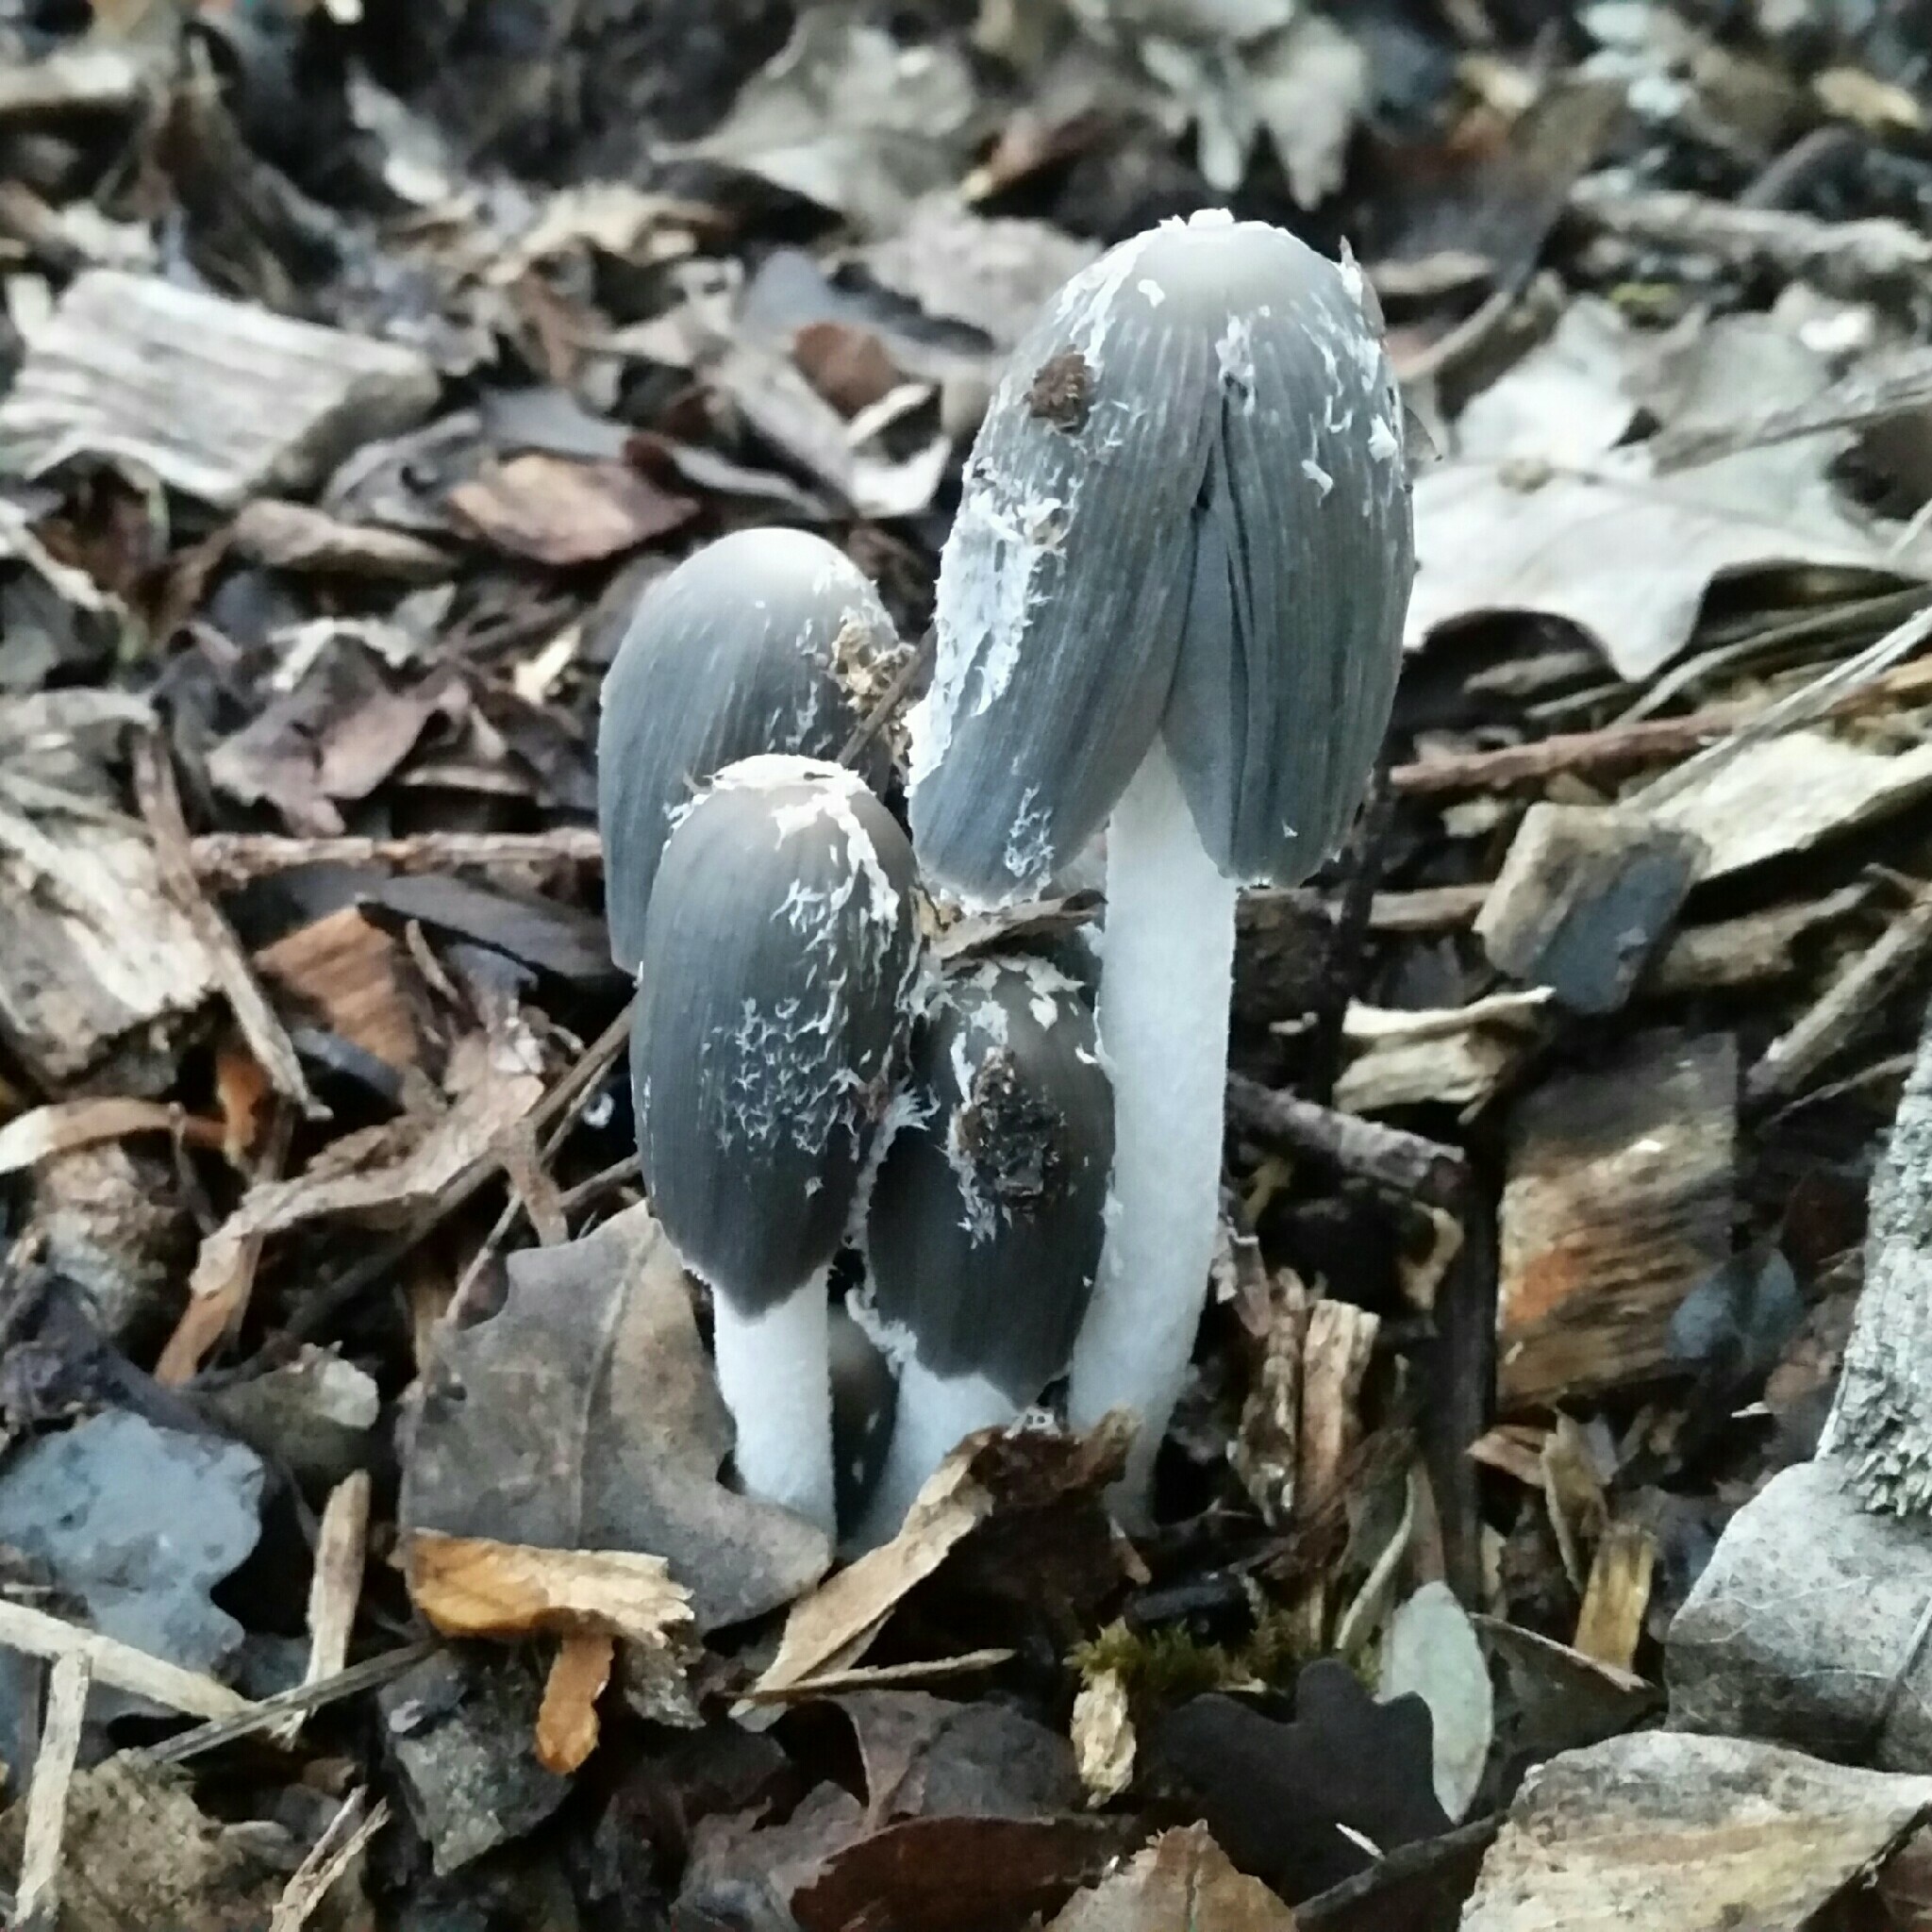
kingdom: Fungi
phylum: Basidiomycota
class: Agaricomycetes
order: Agaricales
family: Psathyrellaceae
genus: Coprinopsis
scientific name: Coprinopsis lagopus
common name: Hare'sfoot inkcap
